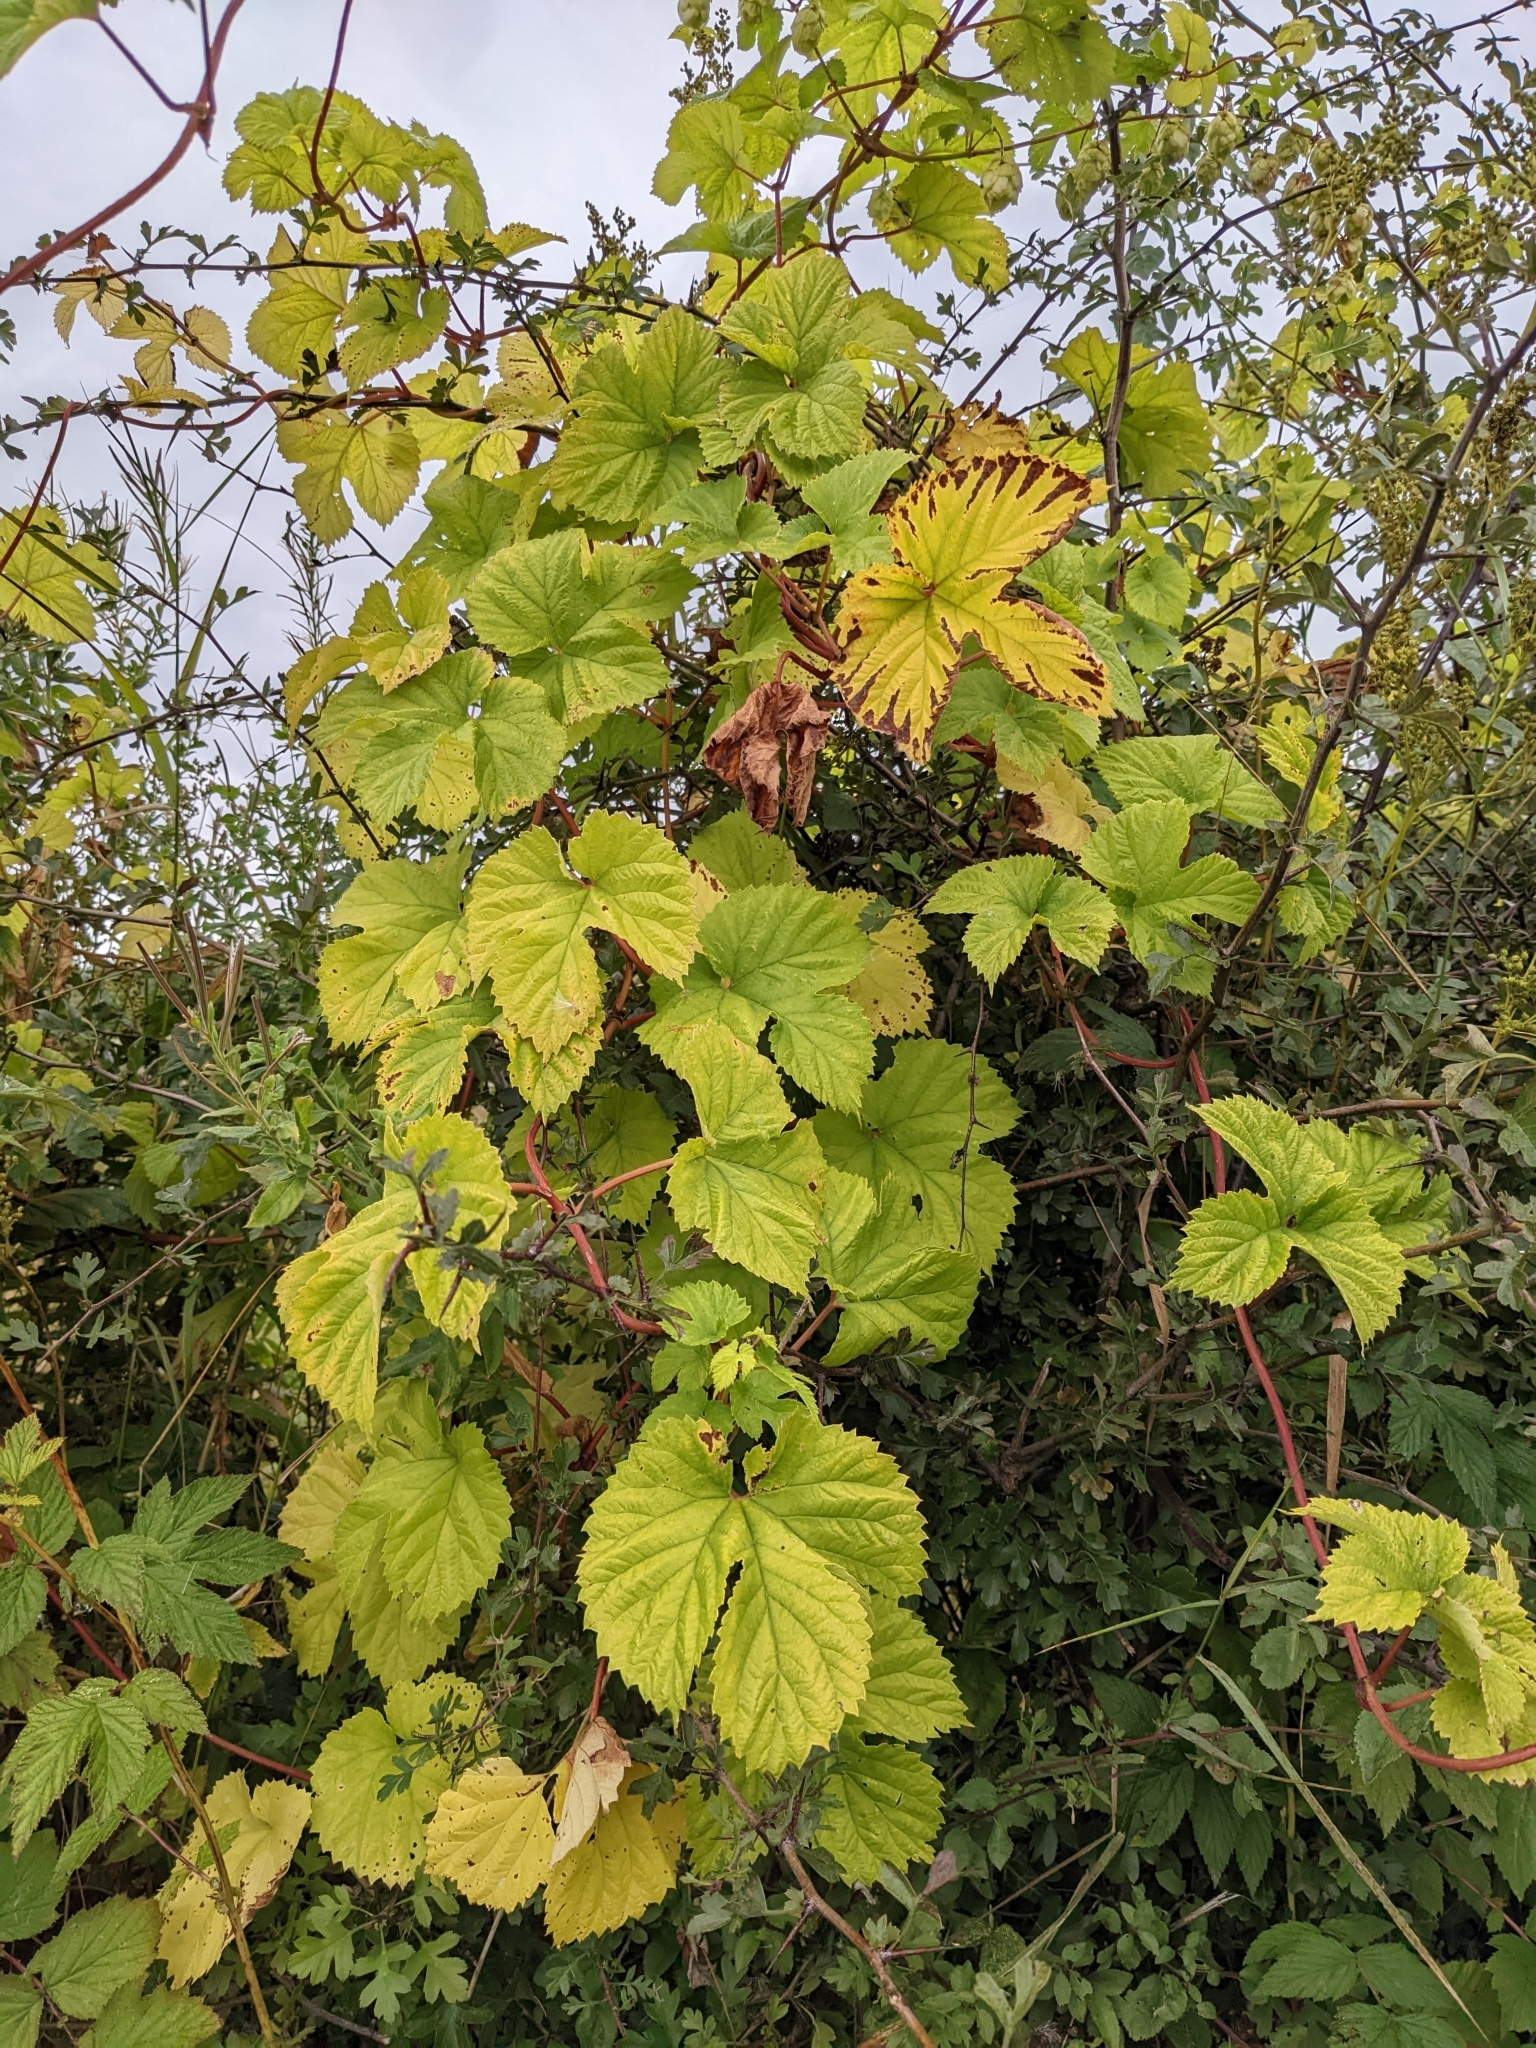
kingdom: Plantae
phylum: Tracheophyta
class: Magnoliopsida
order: Rosales
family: Cannabaceae
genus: Humulus
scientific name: Humulus lupulus
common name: Hop
